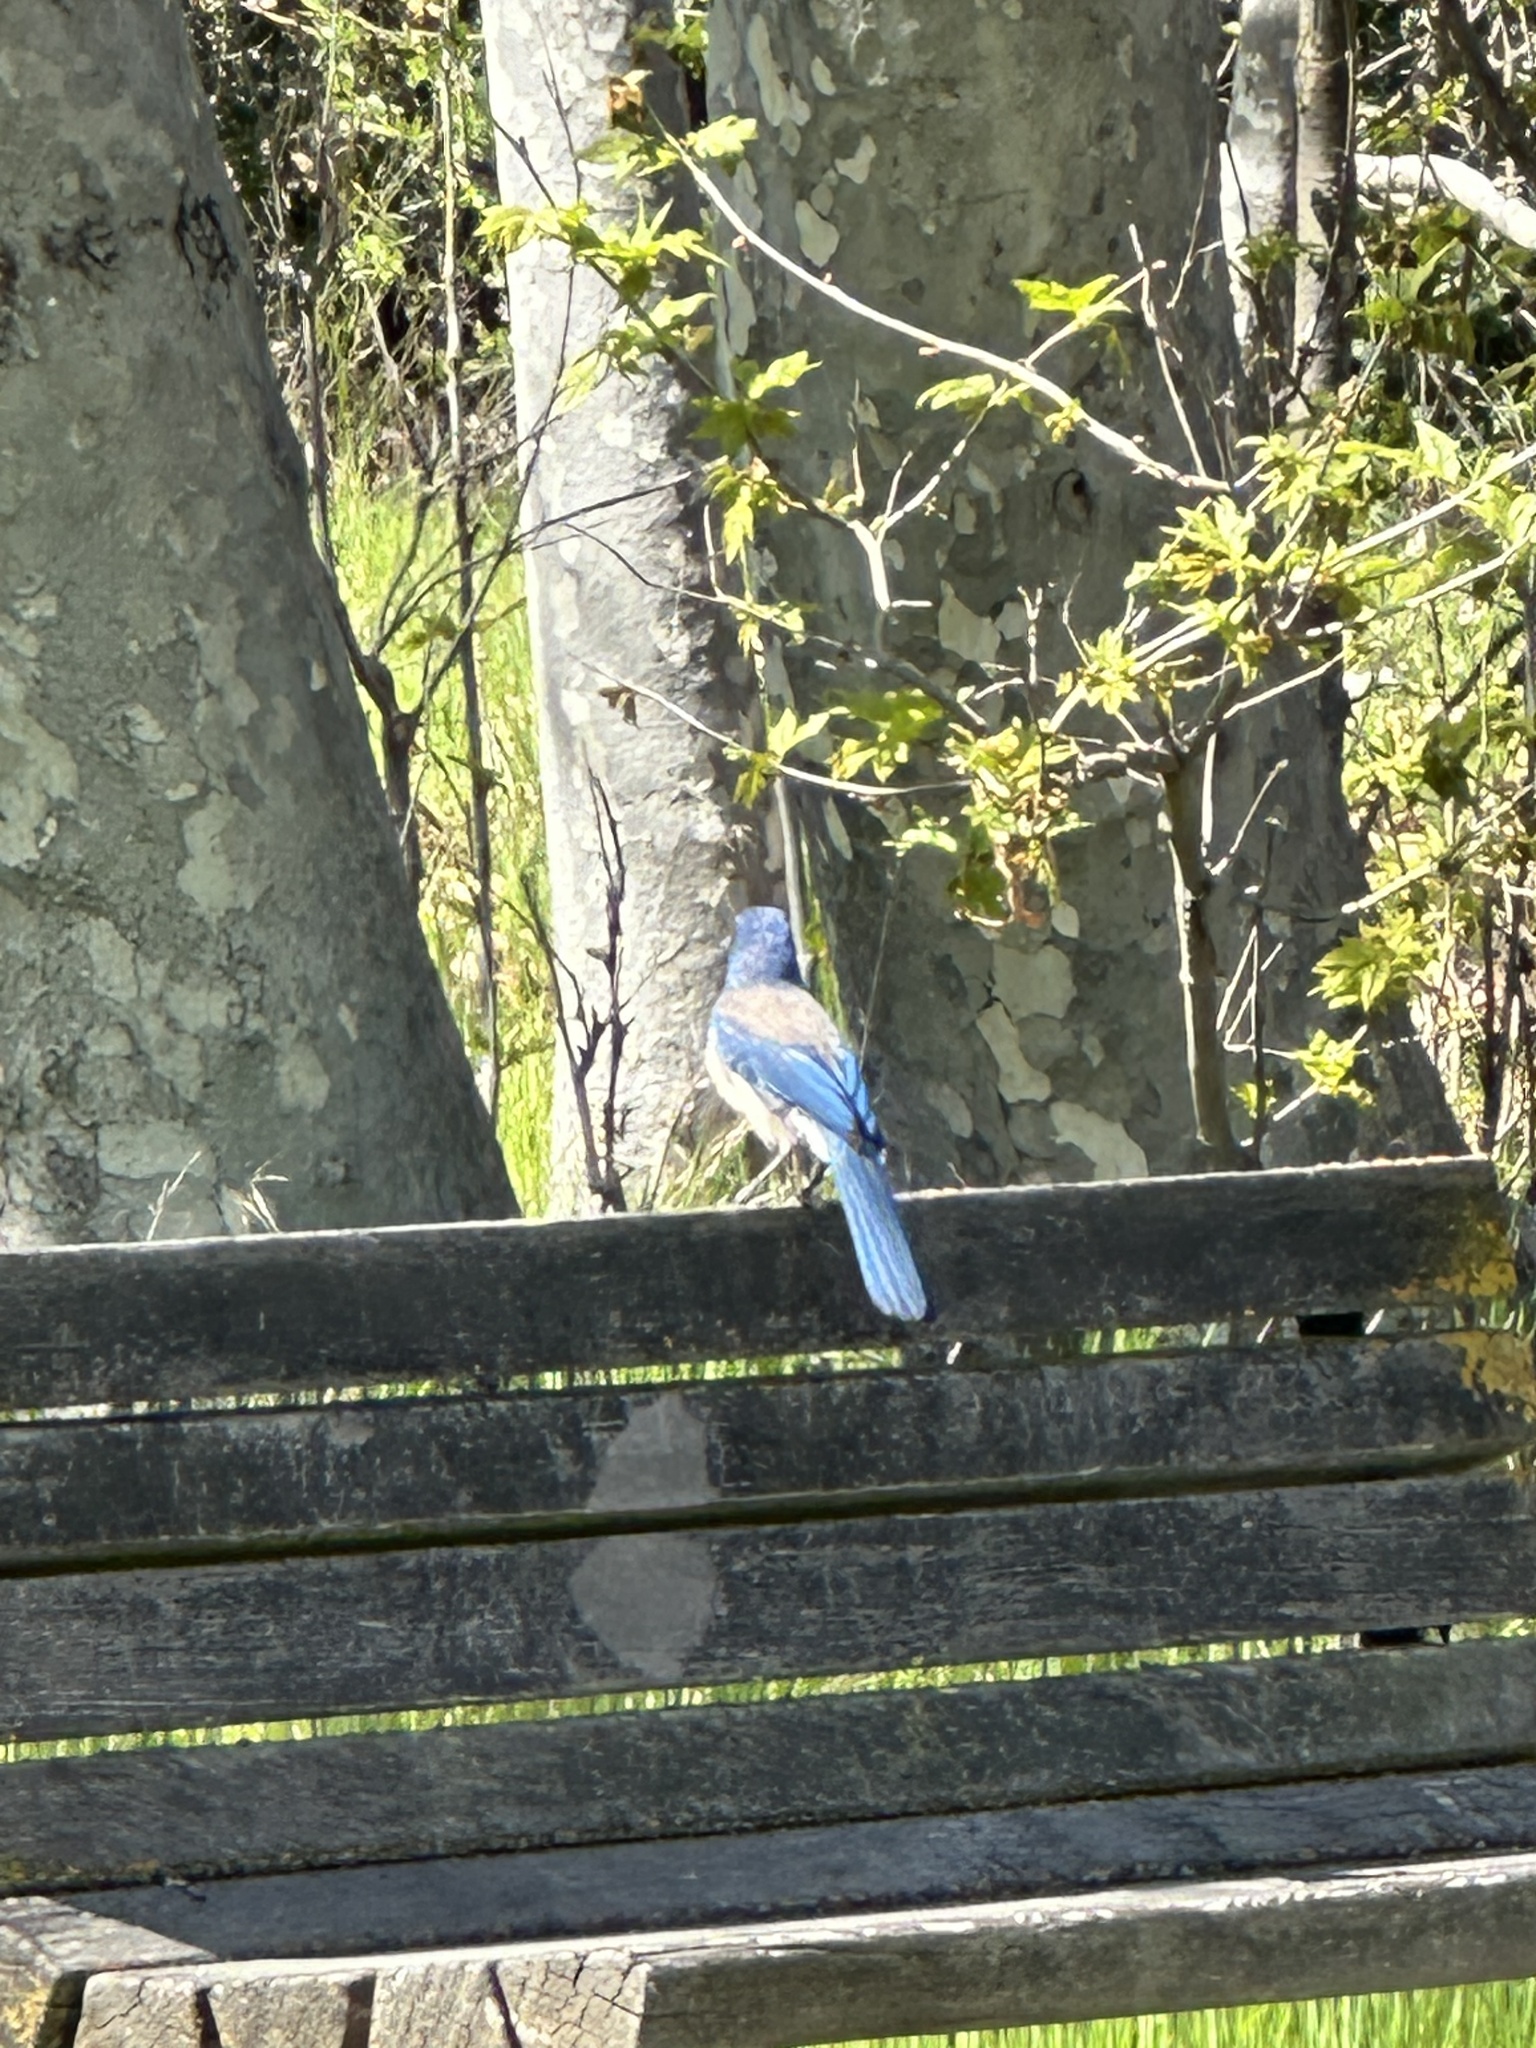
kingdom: Animalia
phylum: Chordata
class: Aves
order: Passeriformes
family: Corvidae
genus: Aphelocoma
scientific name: Aphelocoma californica
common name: California scrub-jay
